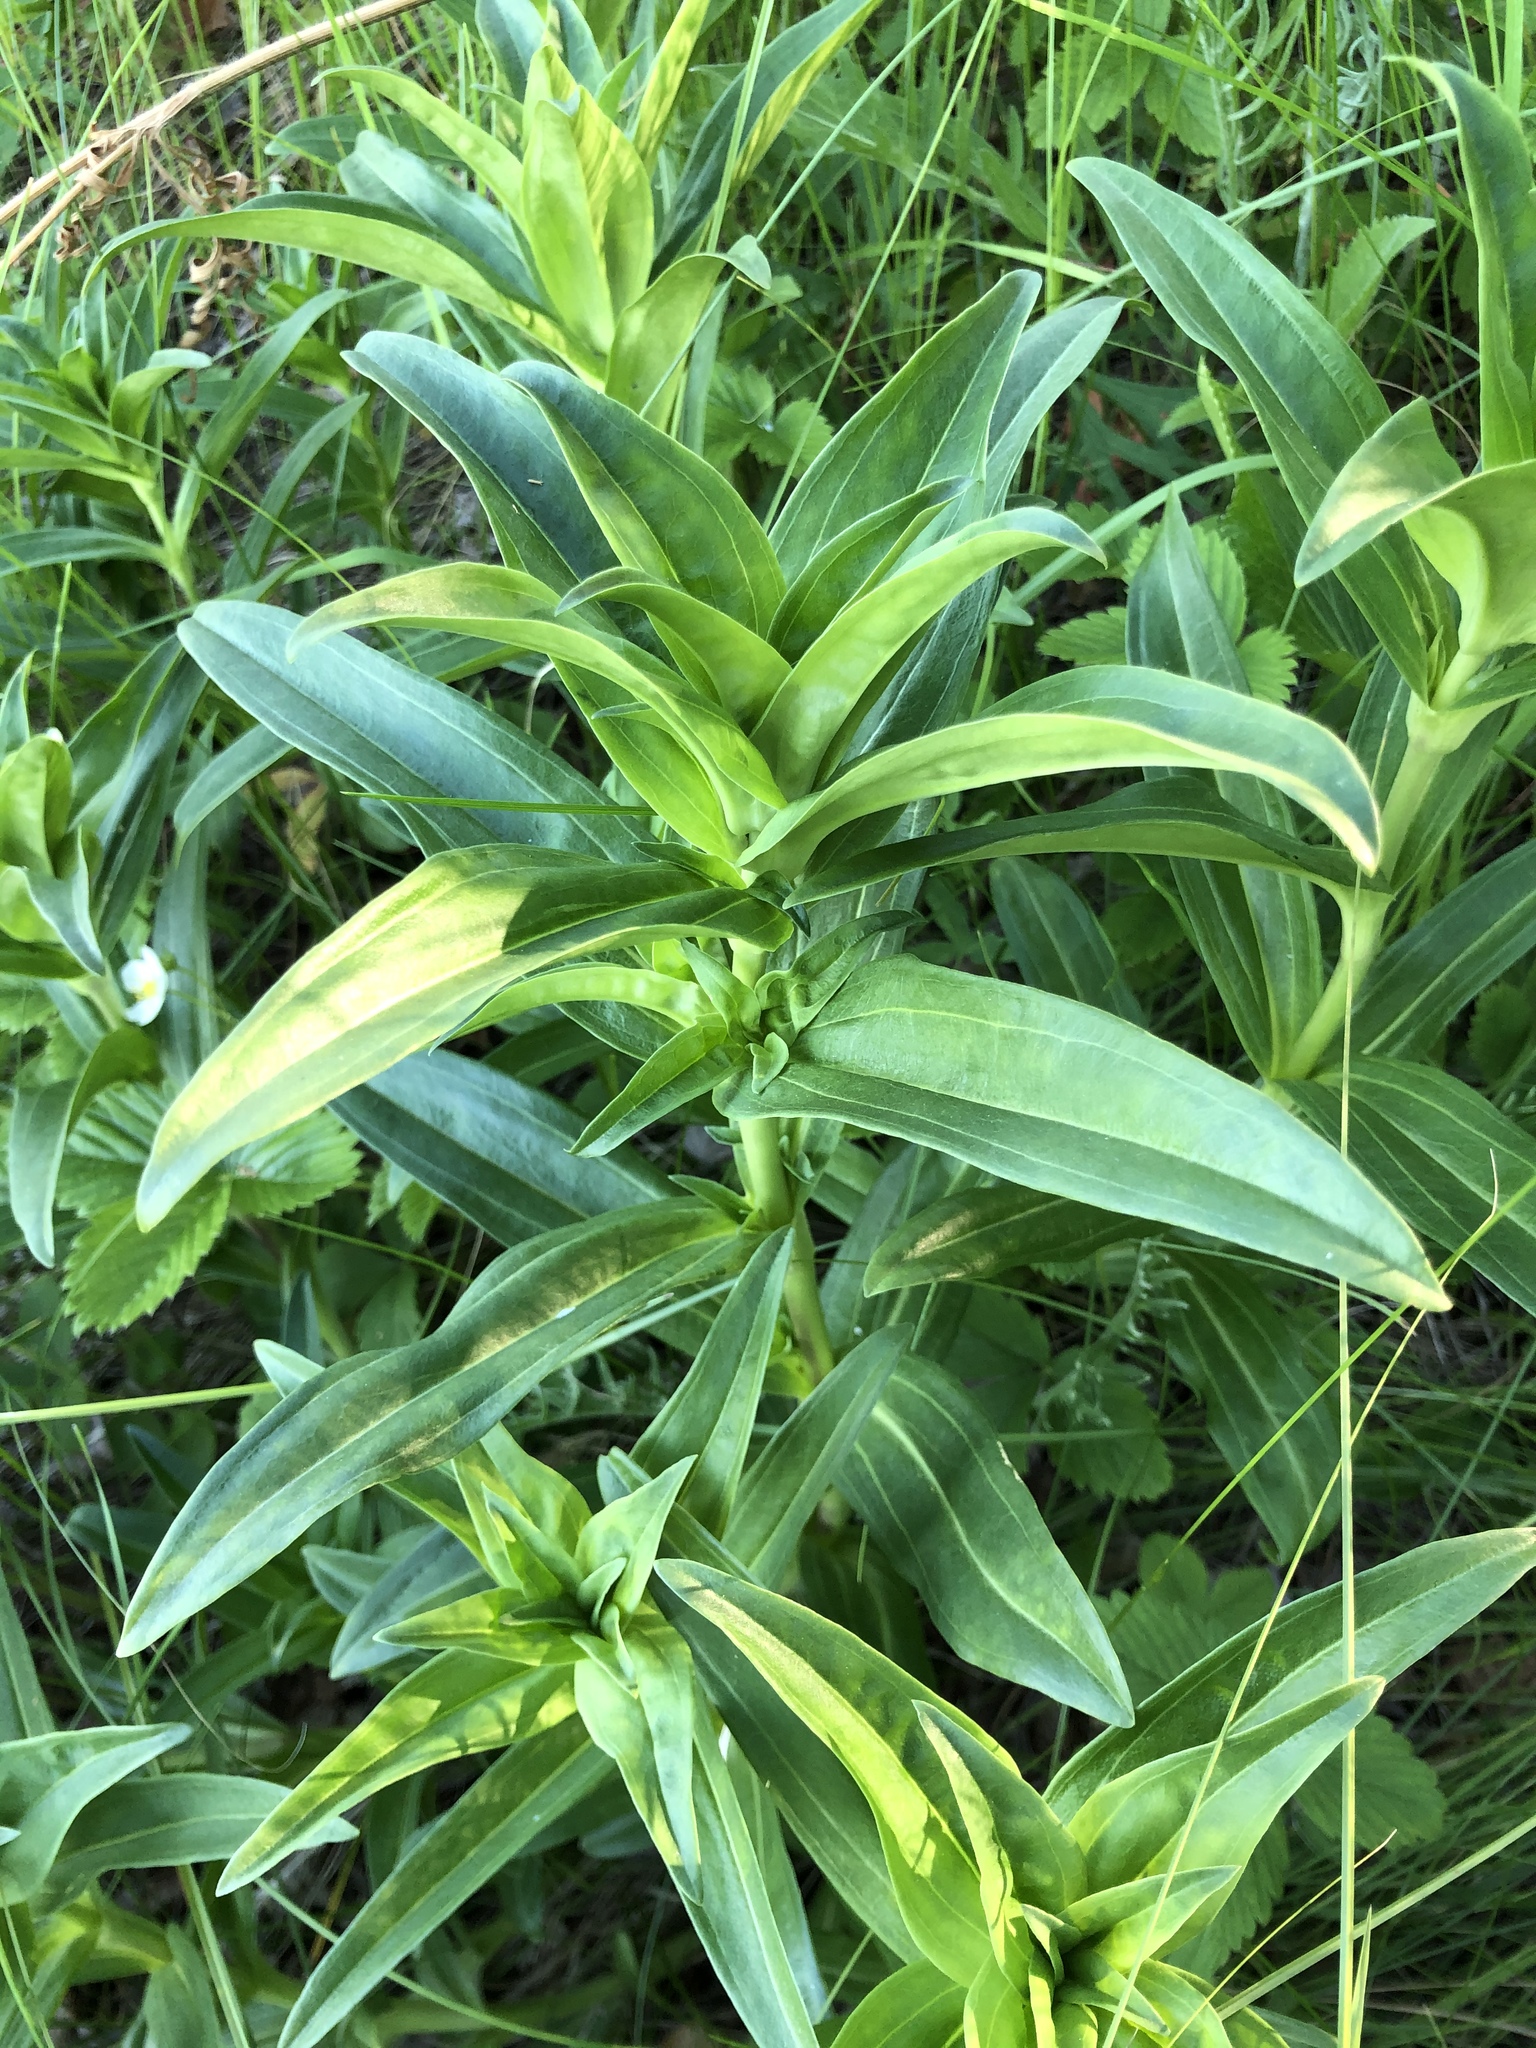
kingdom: Plantae
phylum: Tracheophyta
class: Magnoliopsida
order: Gentianales
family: Gentianaceae
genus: Gentiana
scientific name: Gentiana cruciata
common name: Cross gentian
